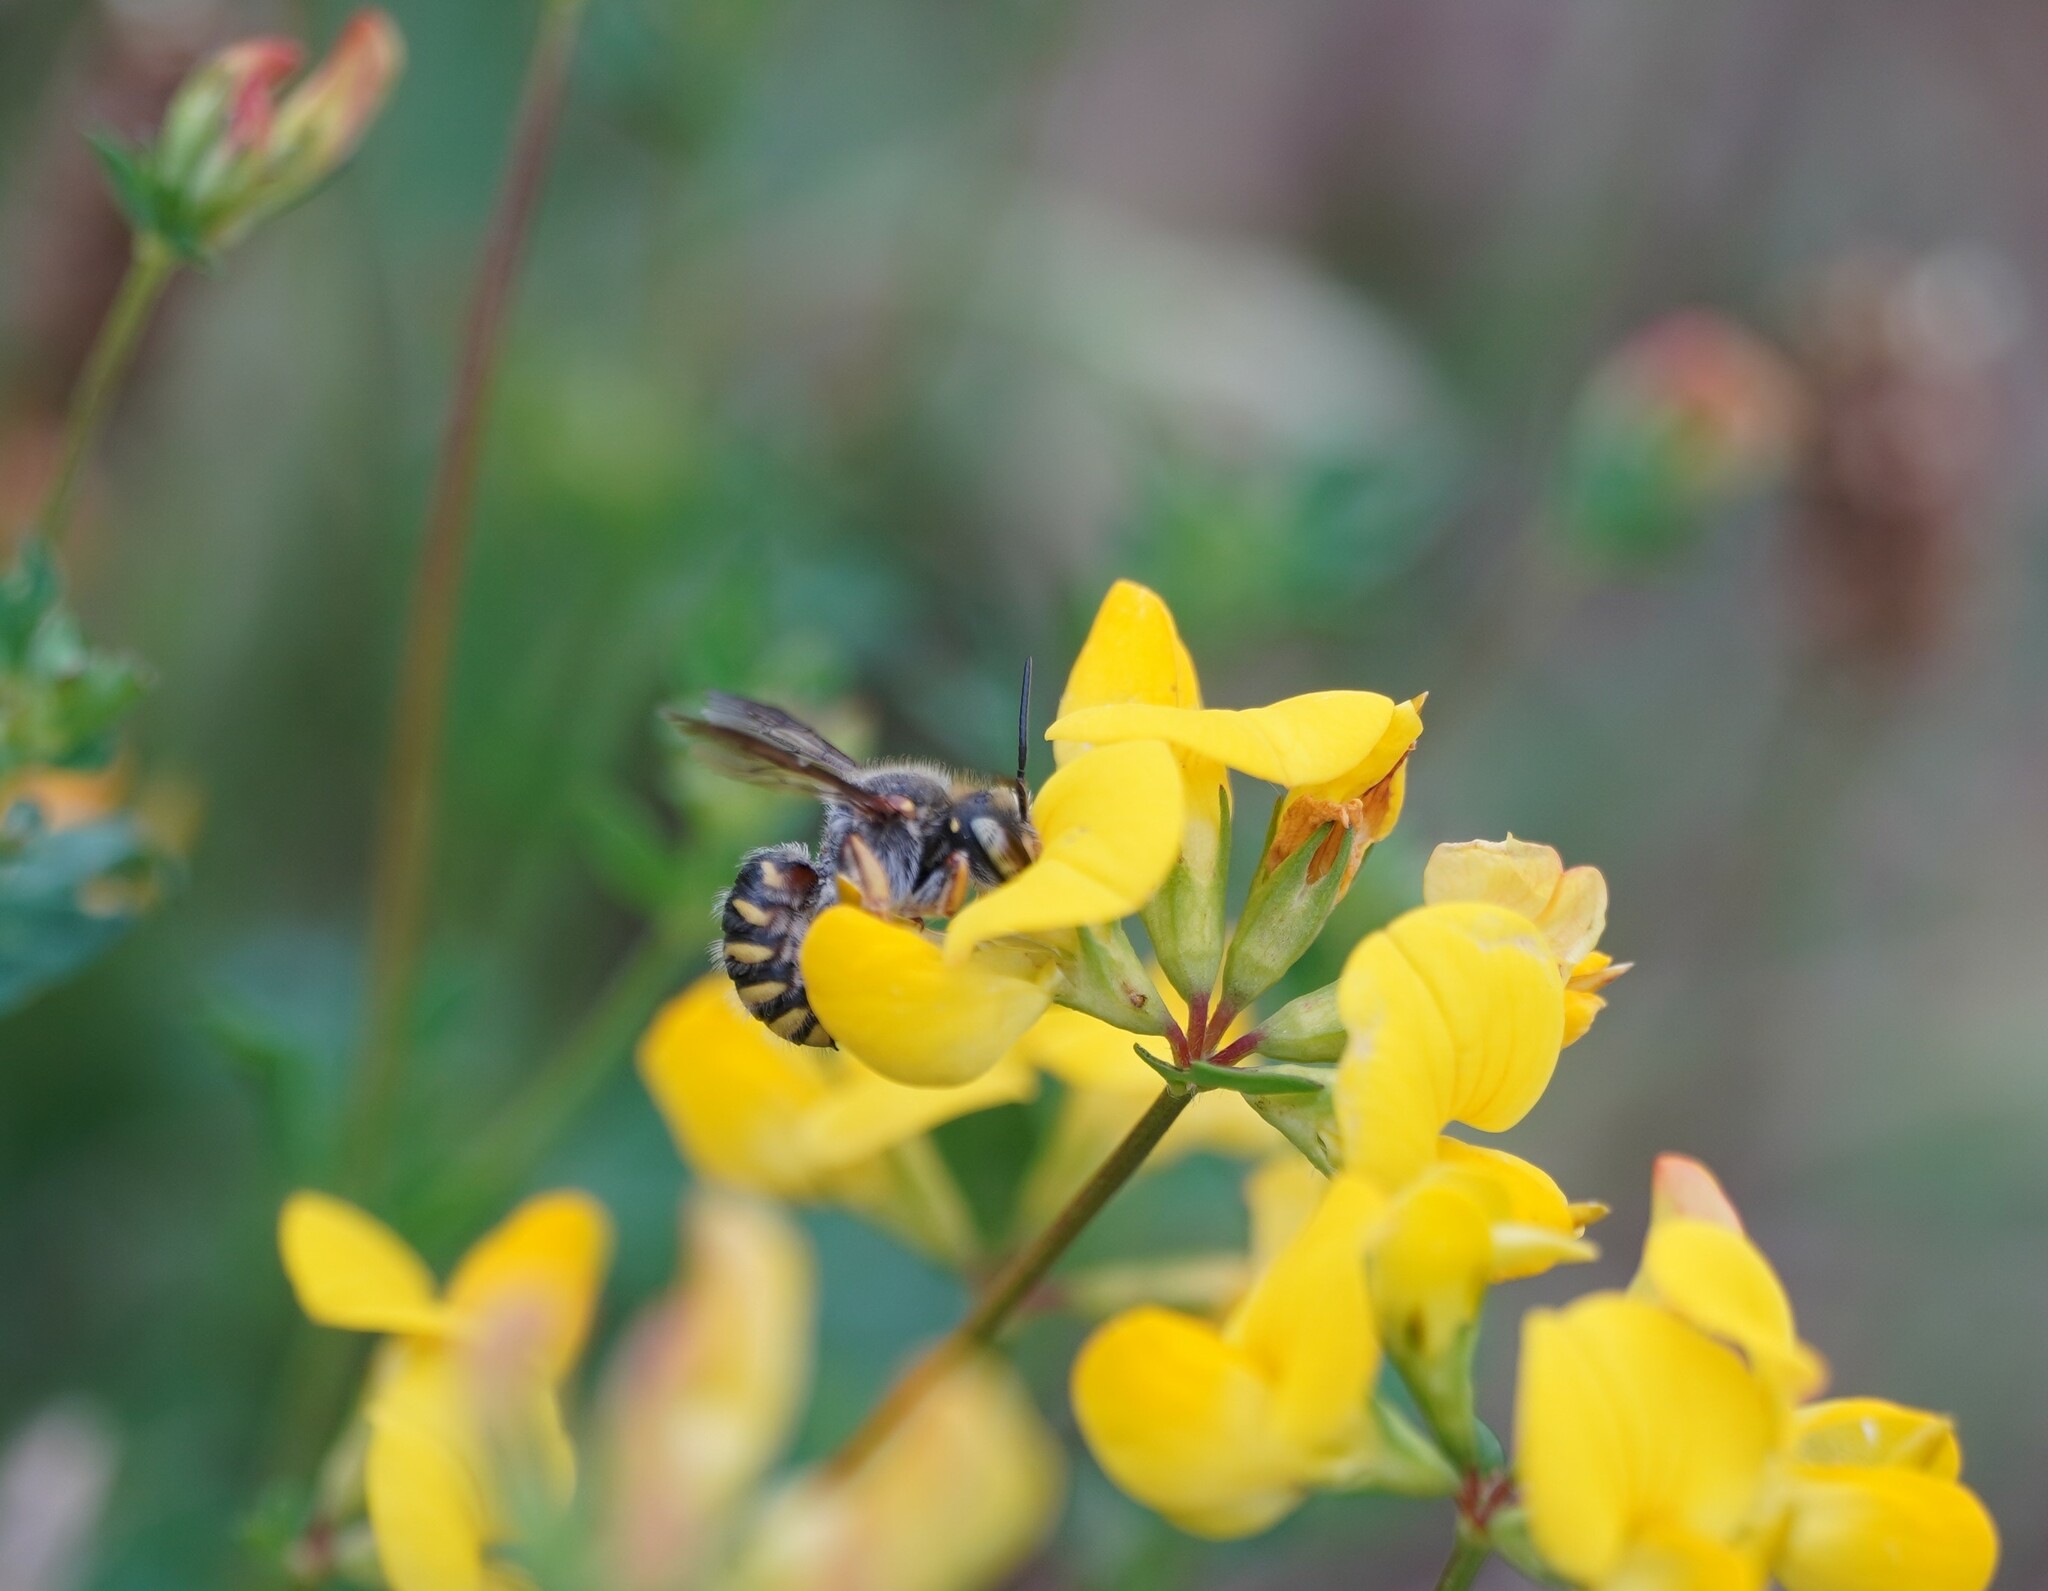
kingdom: Animalia
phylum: Arthropoda
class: Insecta
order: Hymenoptera
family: Megachilidae
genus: Anthidium
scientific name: Anthidium oblongatum
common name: Oblong wool carder bee
